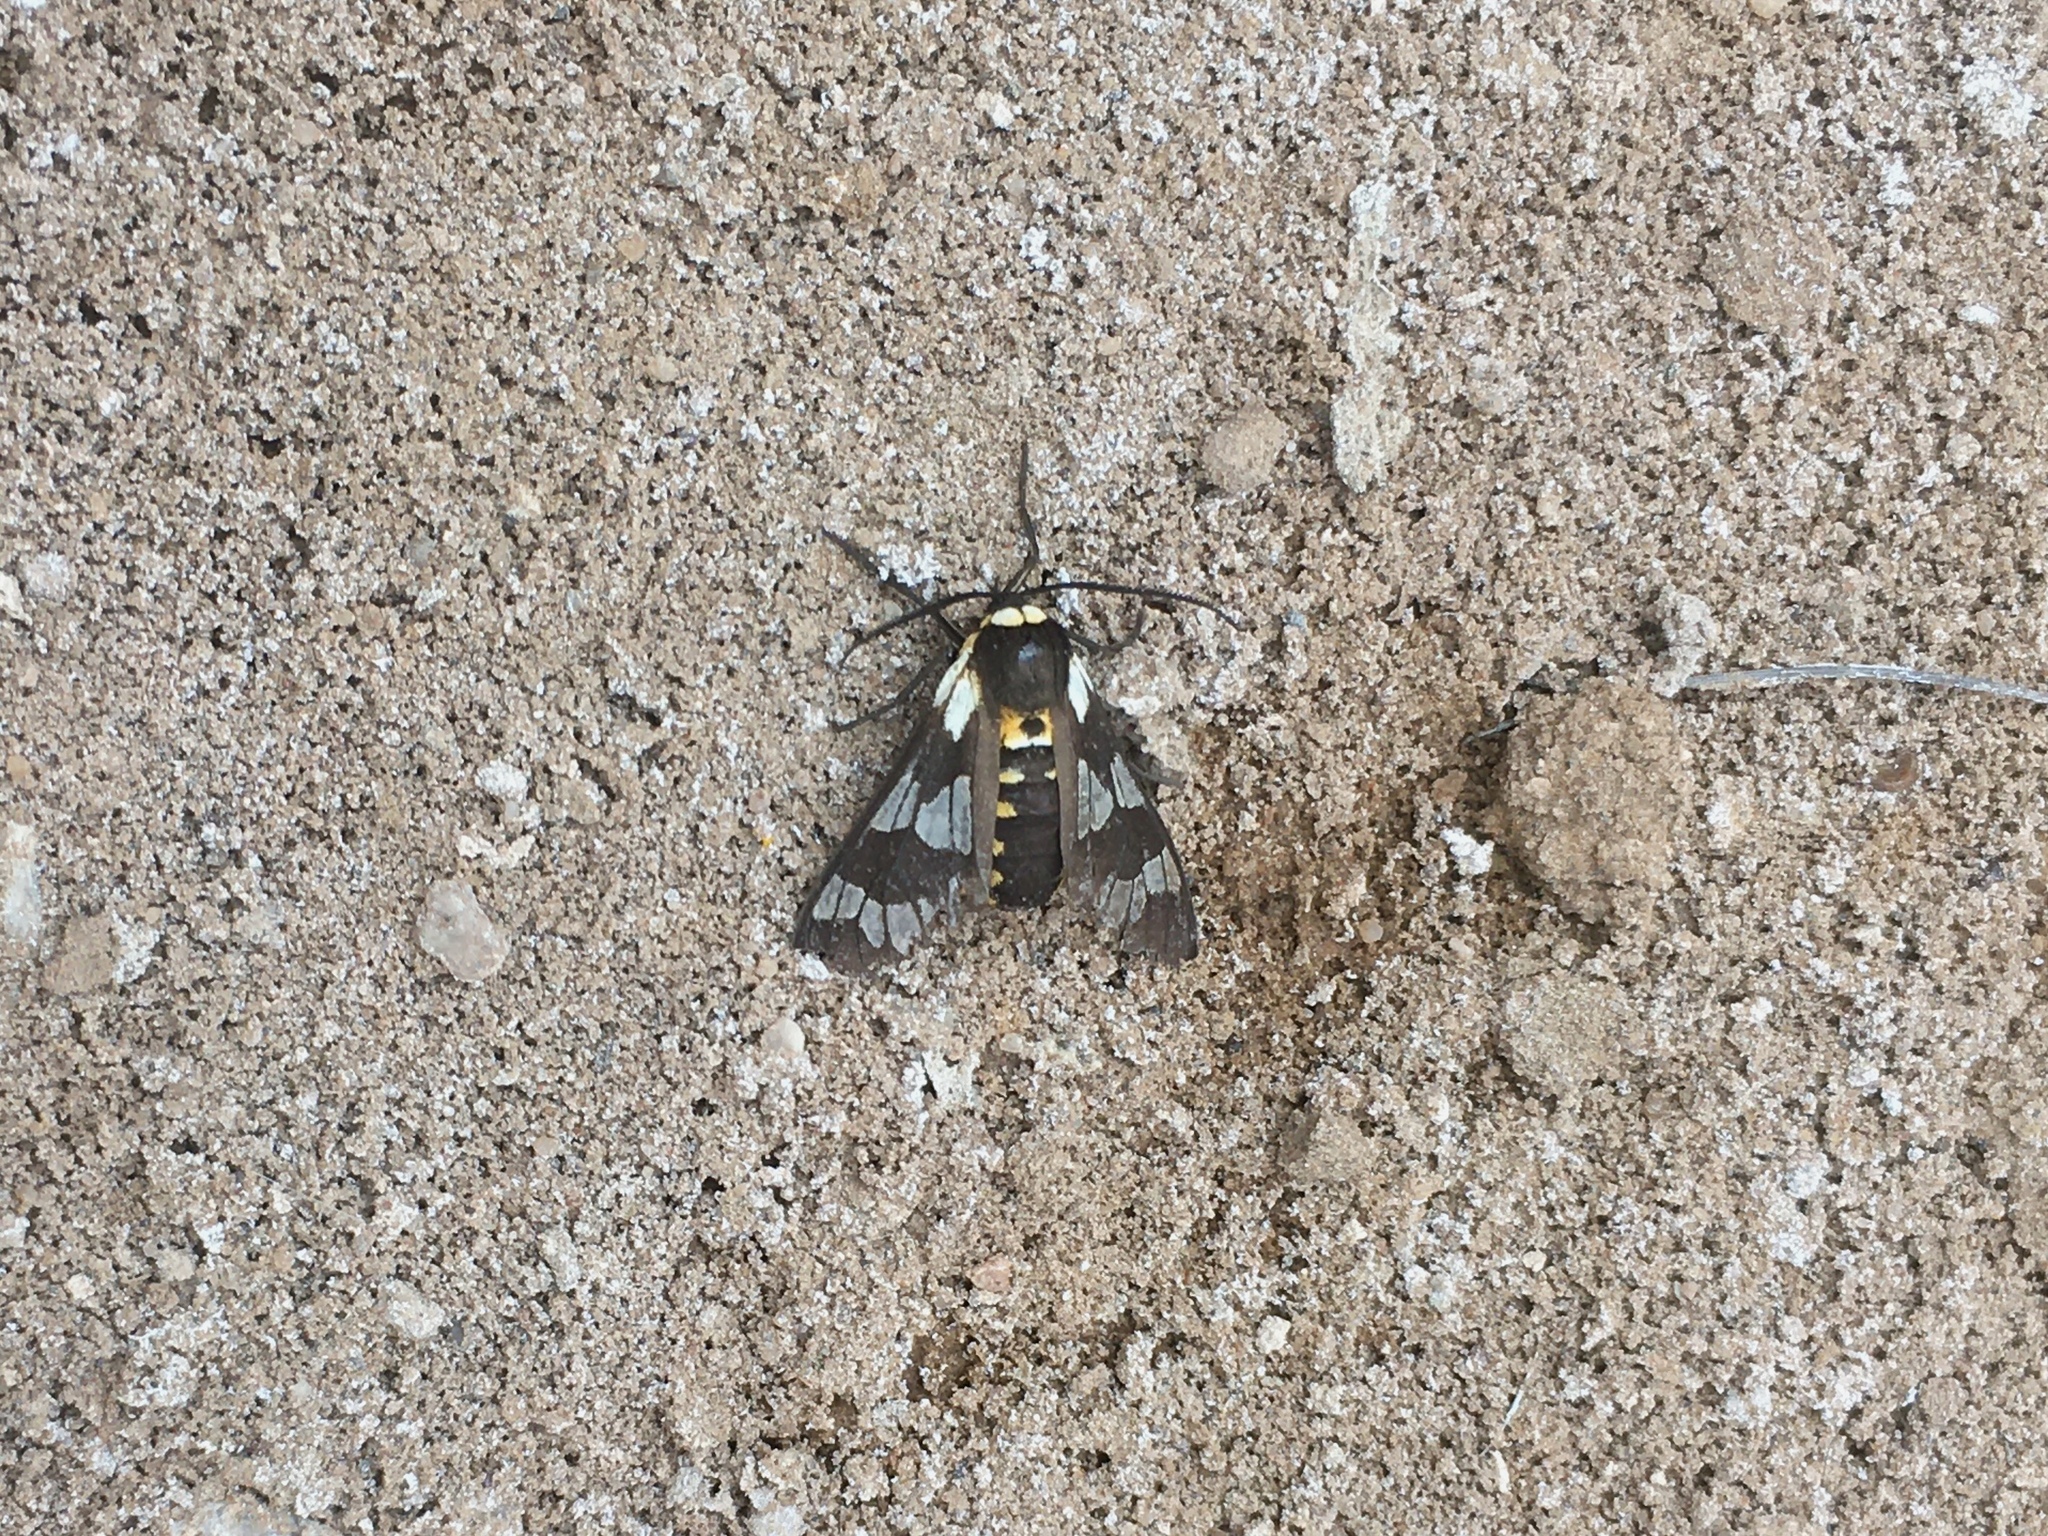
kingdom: Animalia
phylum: Arthropoda
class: Insecta
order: Lepidoptera
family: Erebidae
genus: Eurata
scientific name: Eurata
